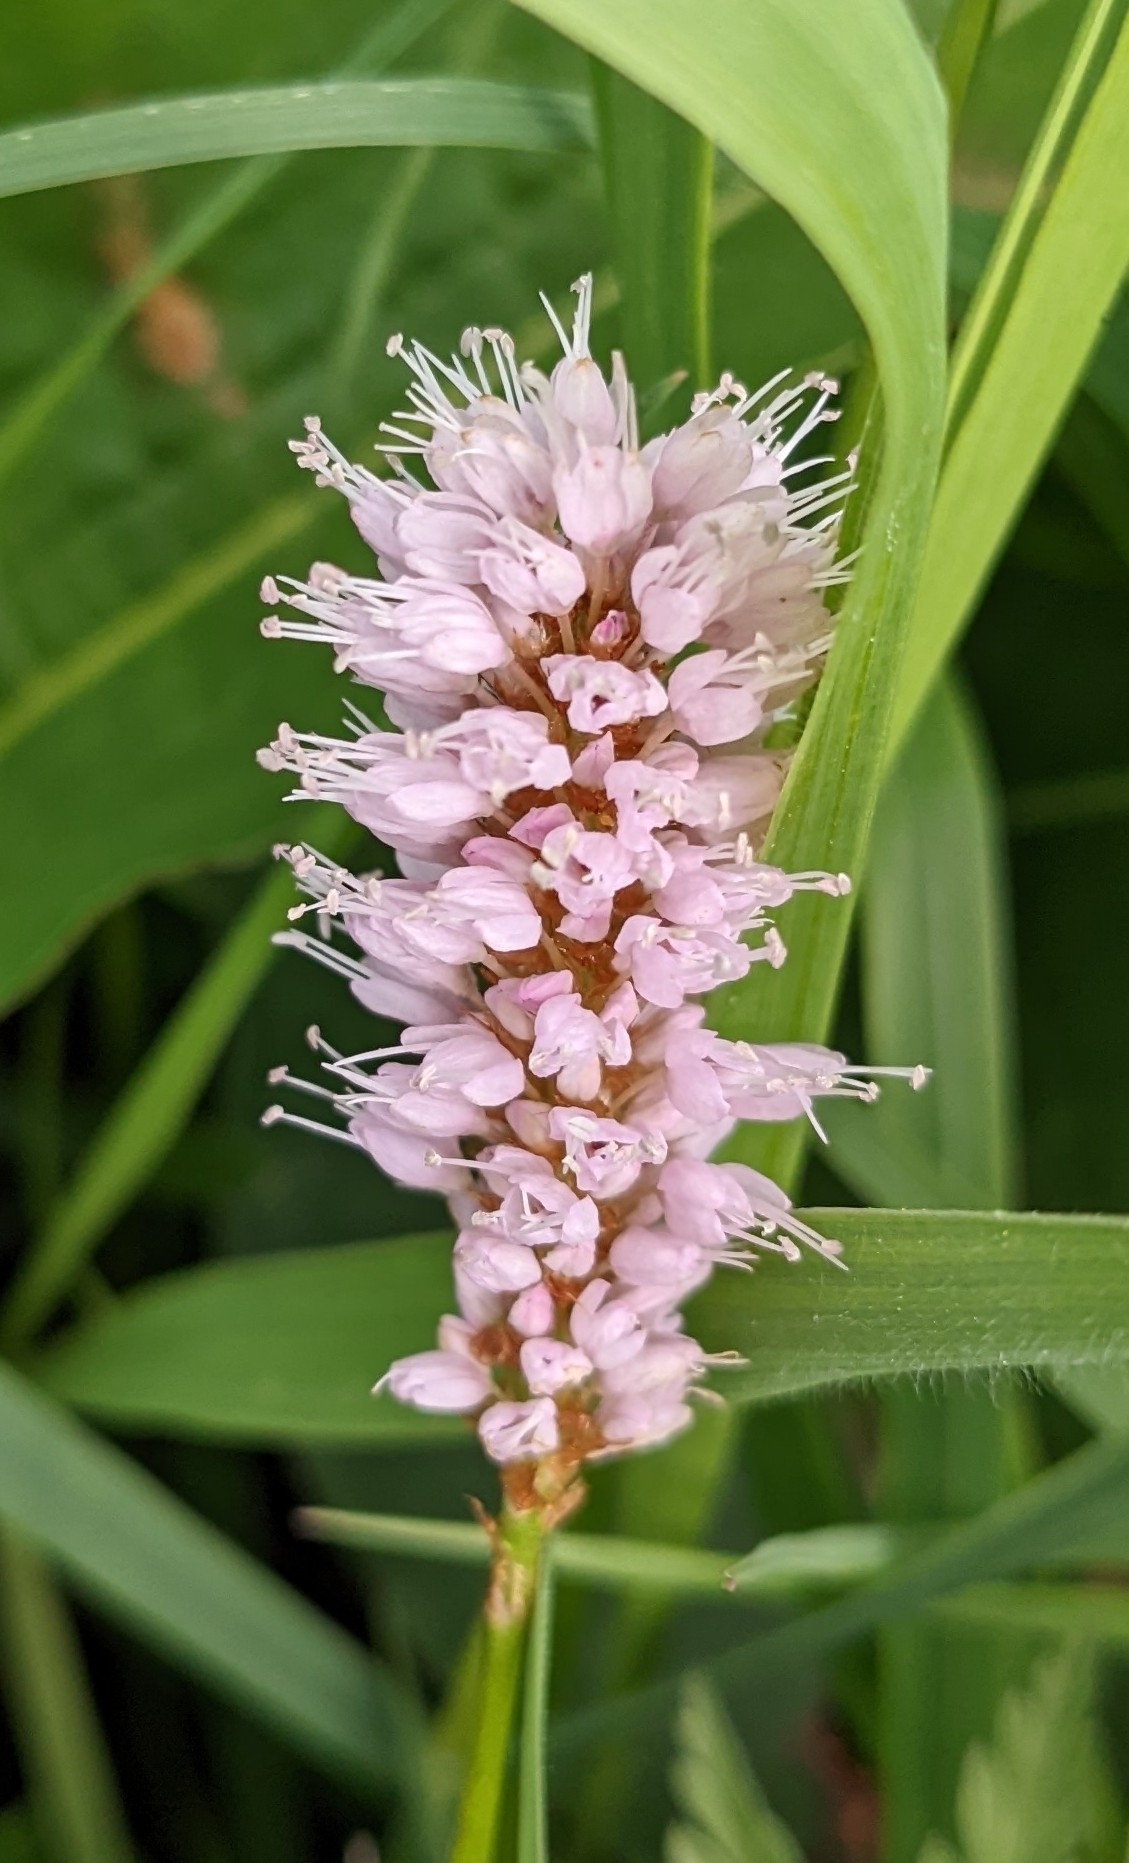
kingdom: Plantae
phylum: Tracheophyta
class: Magnoliopsida
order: Caryophyllales
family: Polygonaceae
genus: Bistorta
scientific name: Bistorta officinalis
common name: Common bistort
